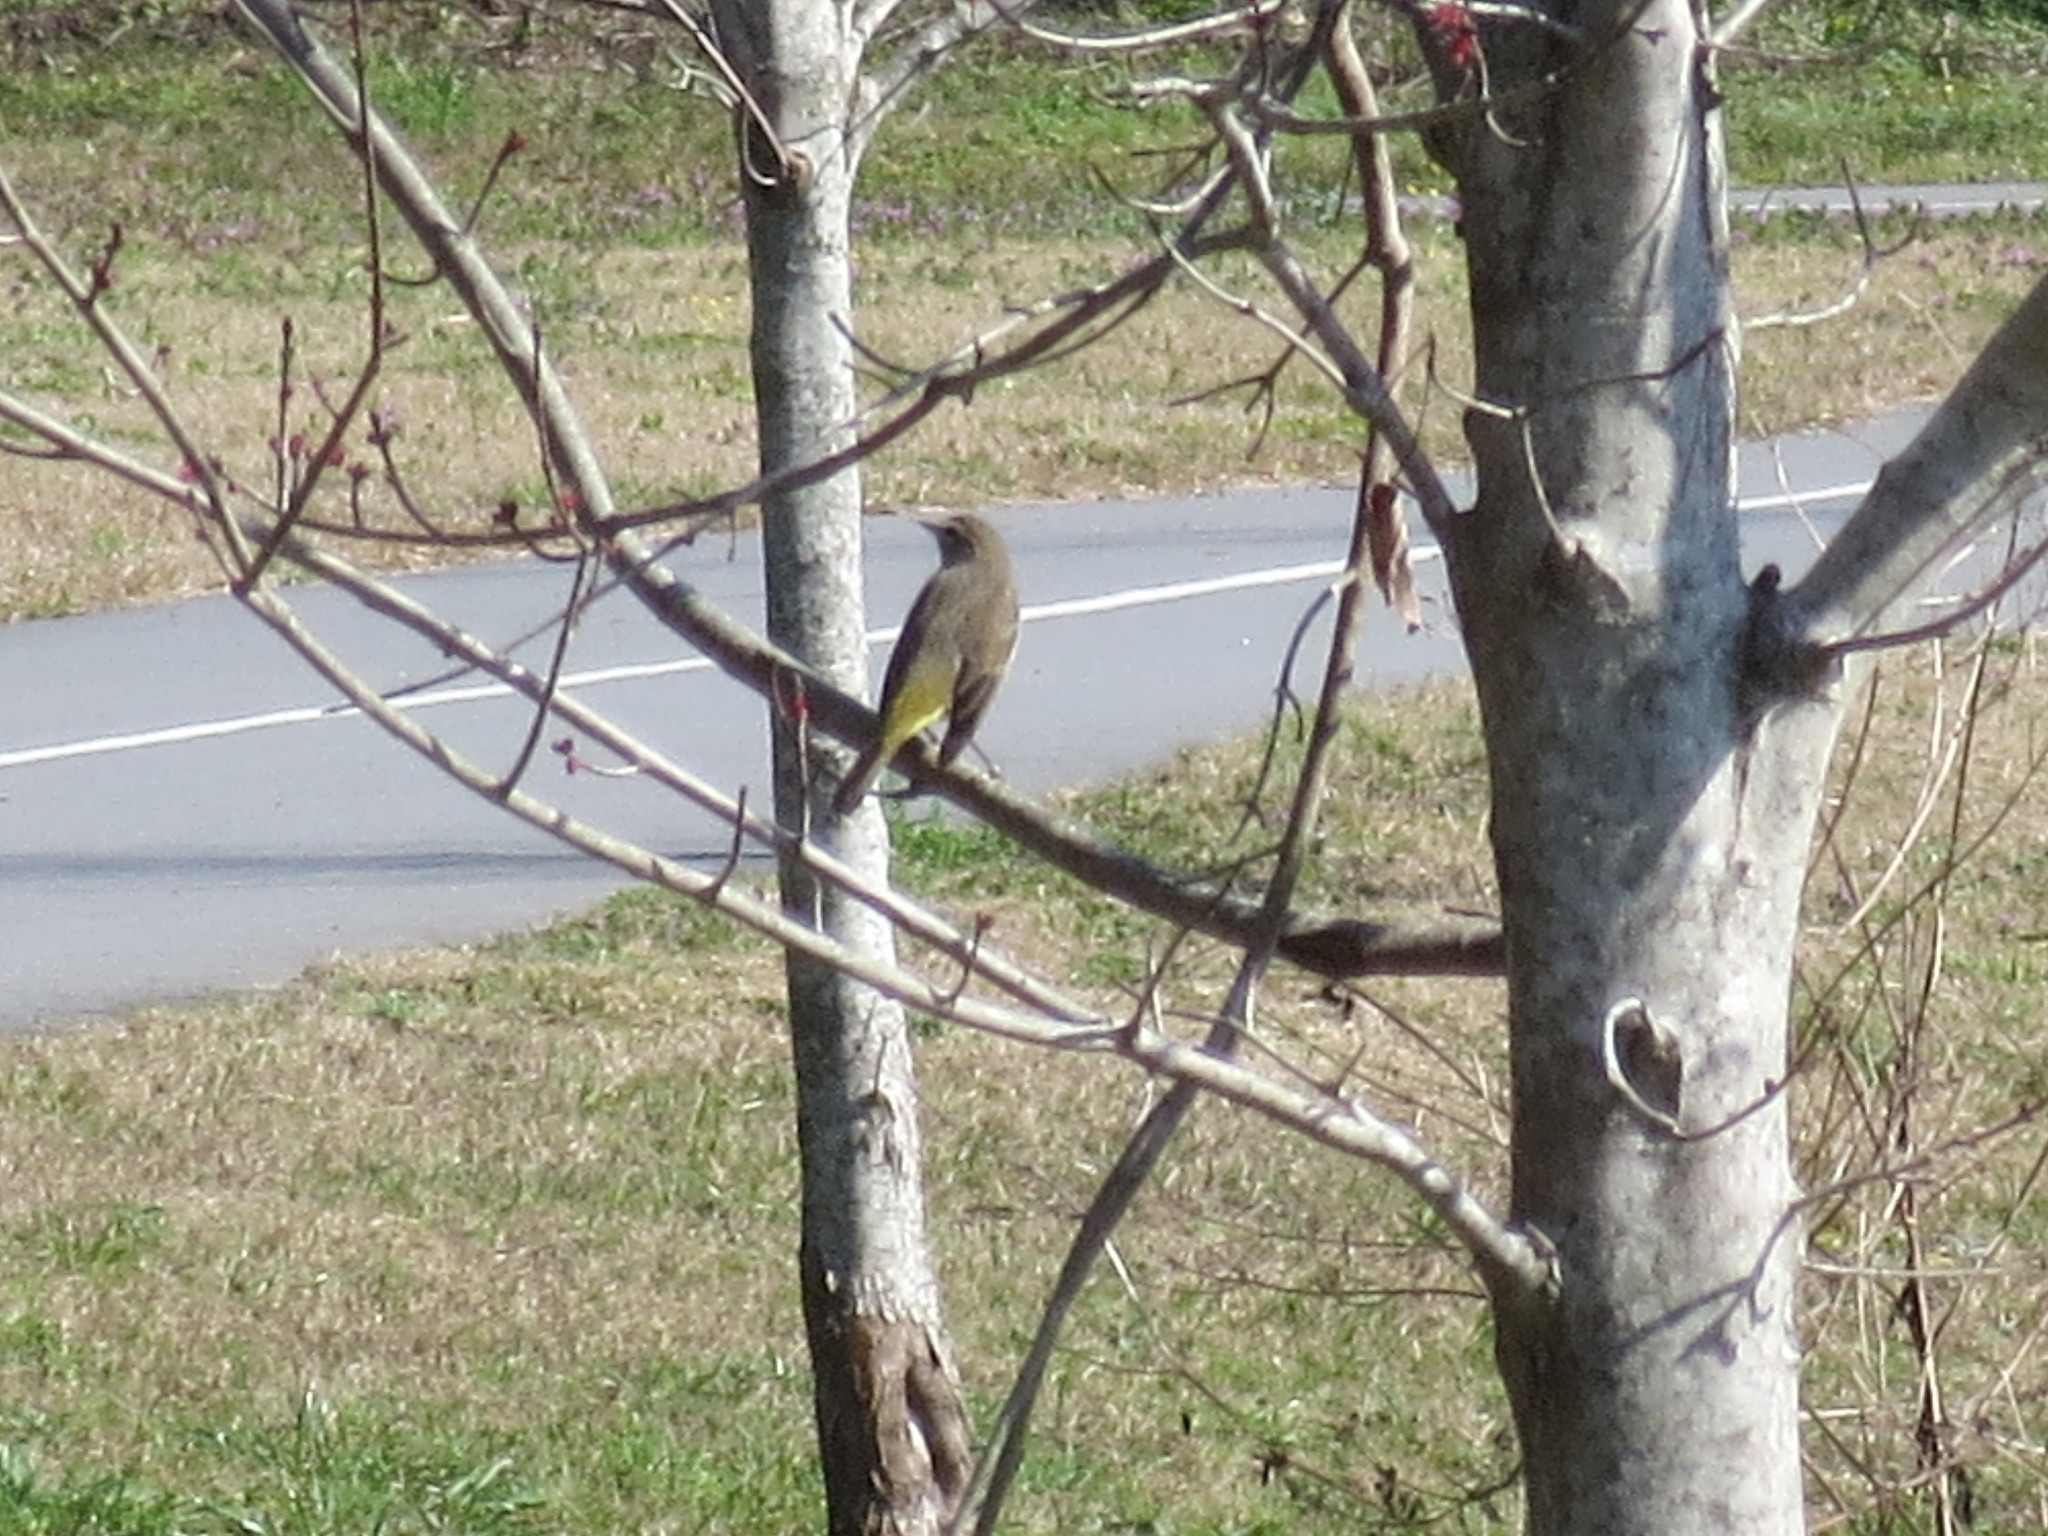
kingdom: Animalia
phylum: Chordata
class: Aves
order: Passeriformes
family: Parulidae
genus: Setophaga
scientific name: Setophaga palmarum
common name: Palm warbler
